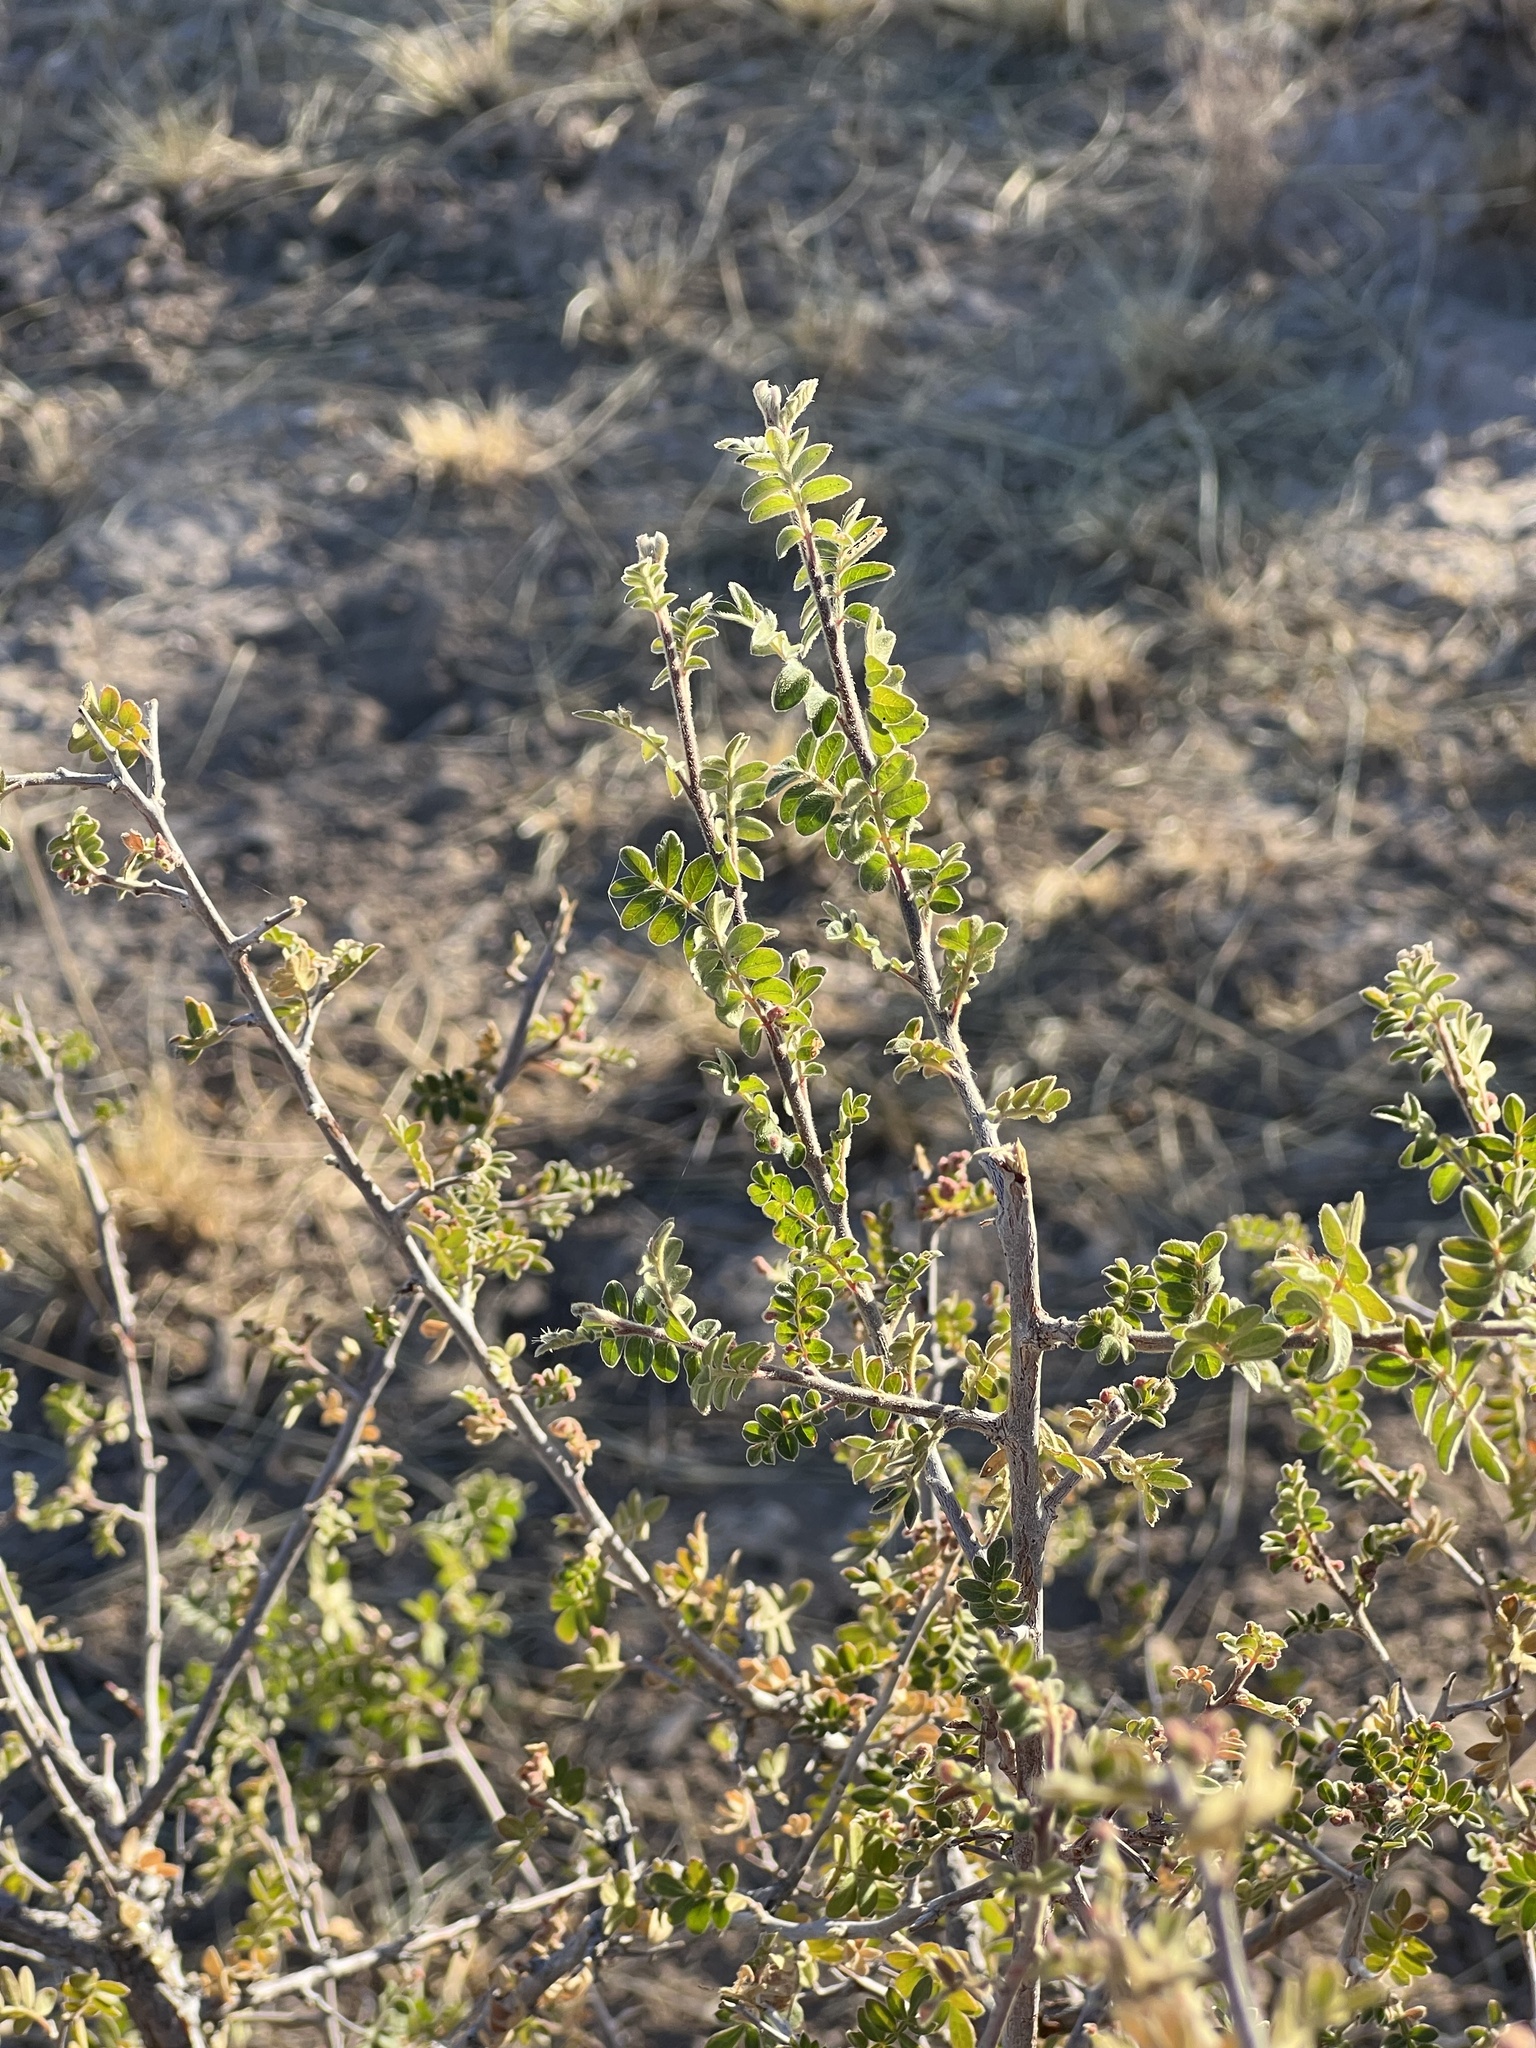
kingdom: Plantae
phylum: Tracheophyta
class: Magnoliopsida
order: Sapindales
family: Anacardiaceae
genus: Rhus
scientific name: Rhus microphylla
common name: Desert sumac
